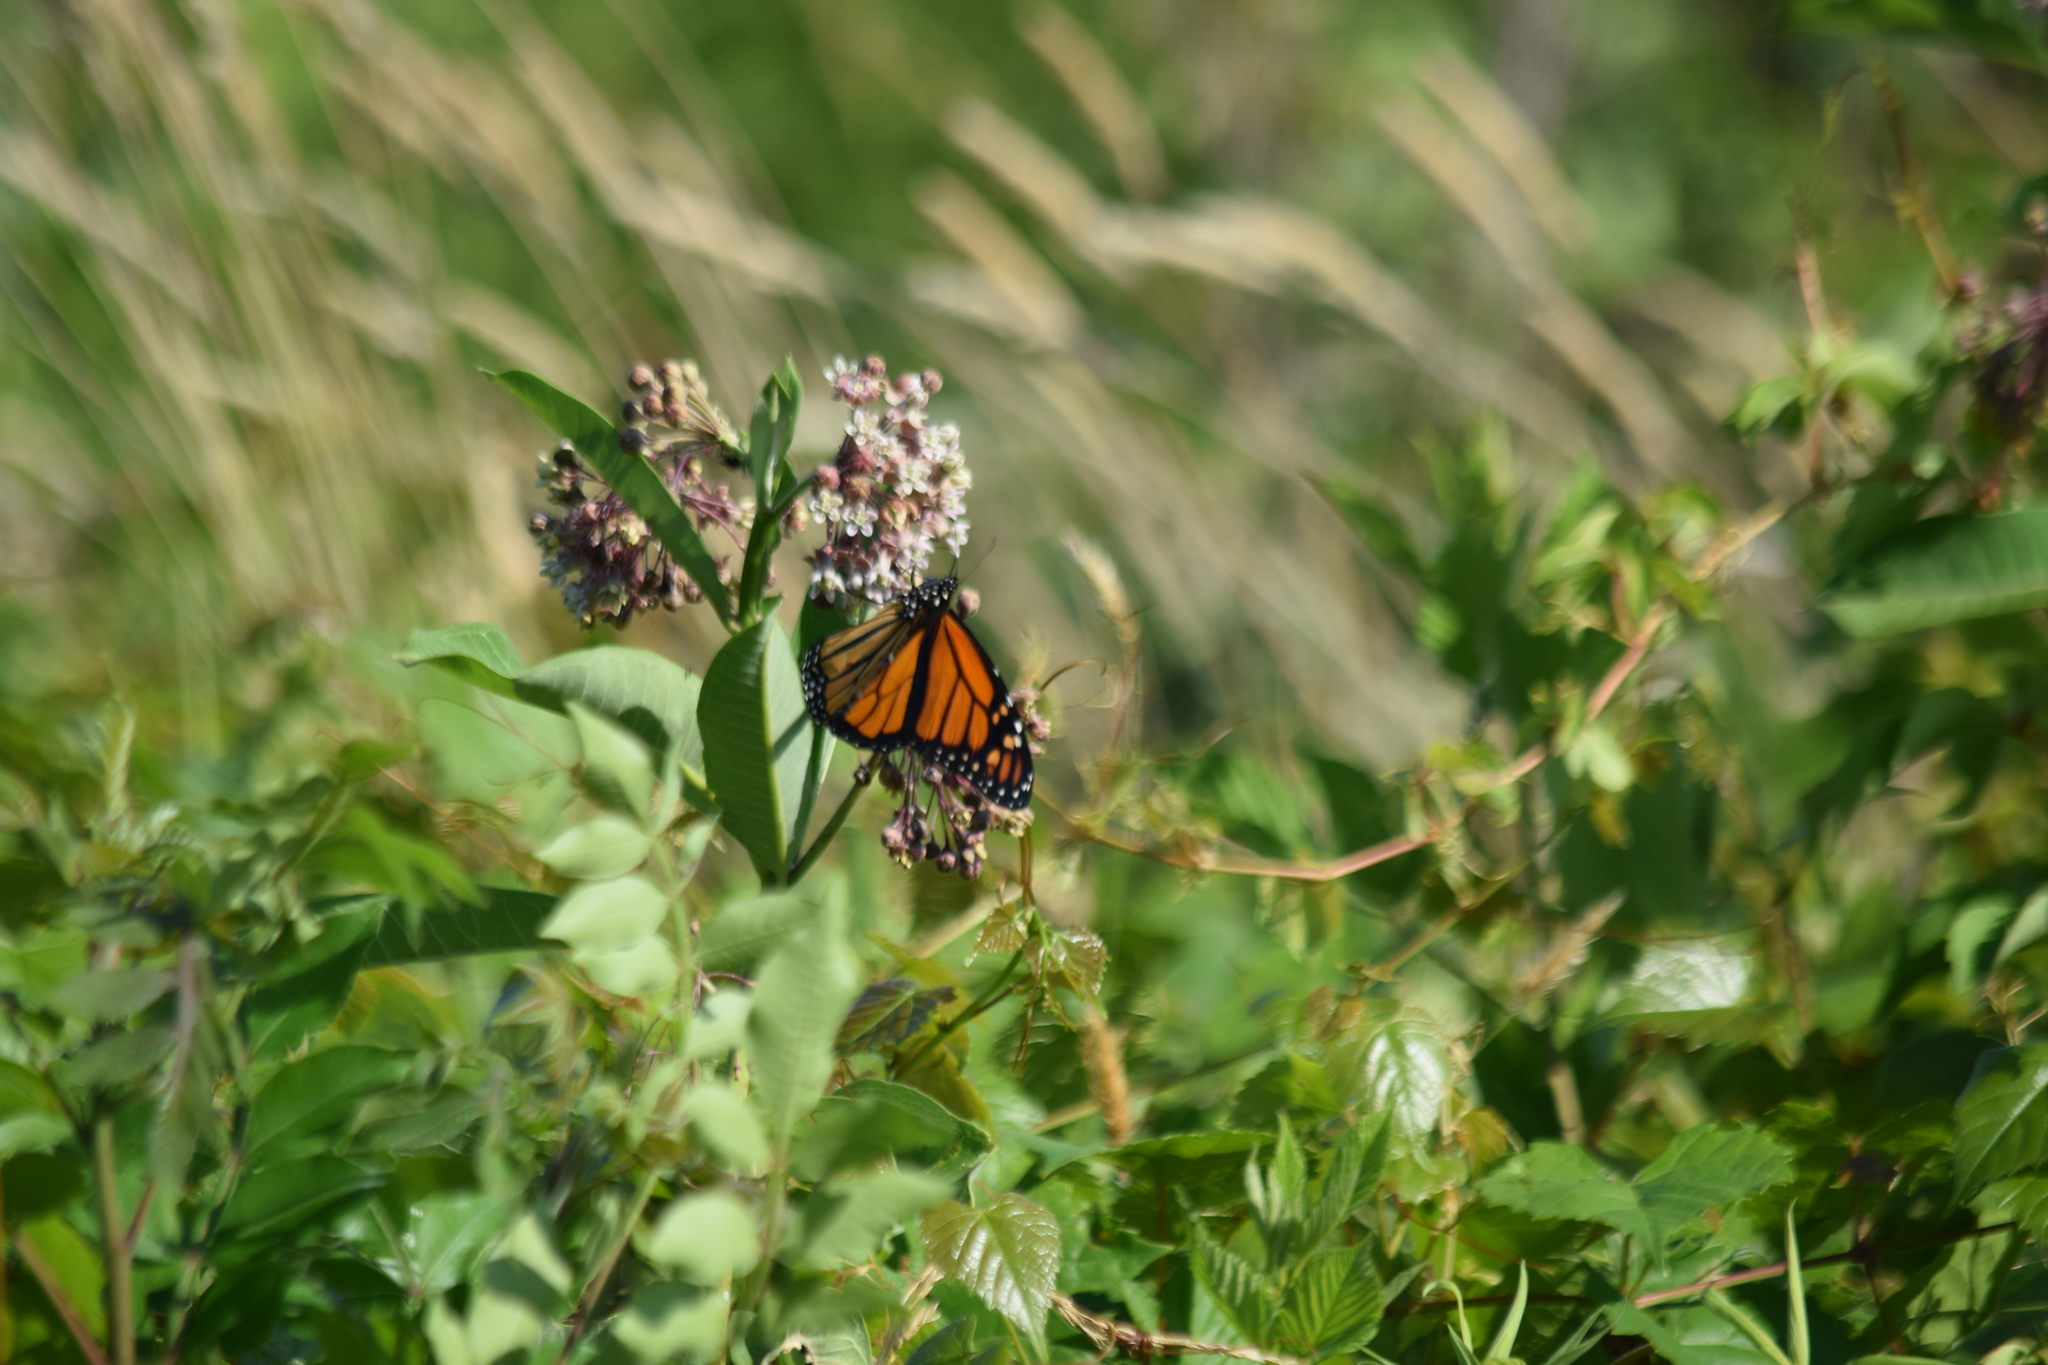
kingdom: Animalia
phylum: Arthropoda
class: Insecta
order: Lepidoptera
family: Nymphalidae
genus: Danaus
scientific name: Danaus plexippus
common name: Monarch
